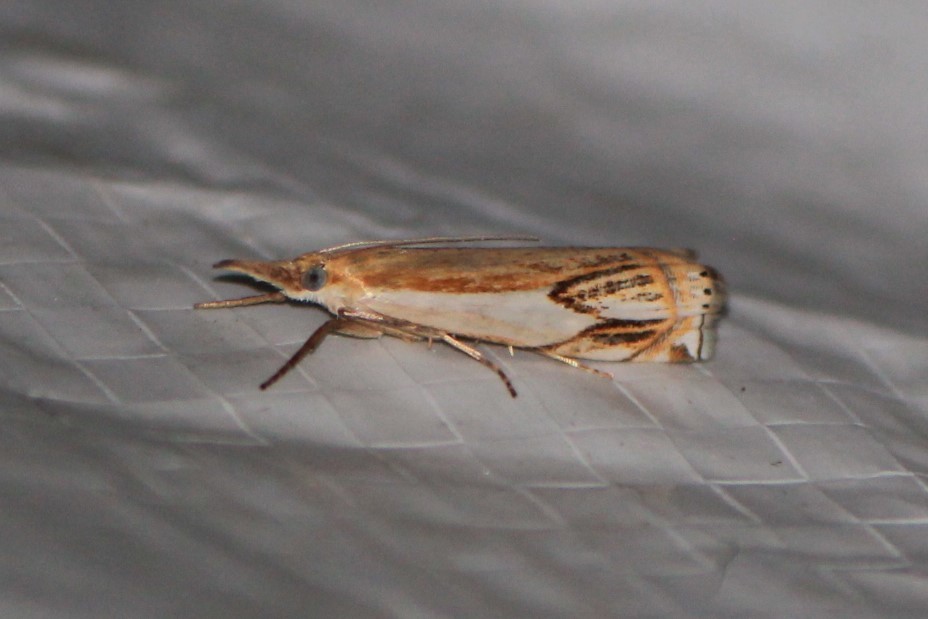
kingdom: Animalia
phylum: Arthropoda
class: Insecta
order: Lepidoptera
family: Crambidae
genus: Crambus
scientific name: Crambus agitatellus
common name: Double-banded grass-veneer
